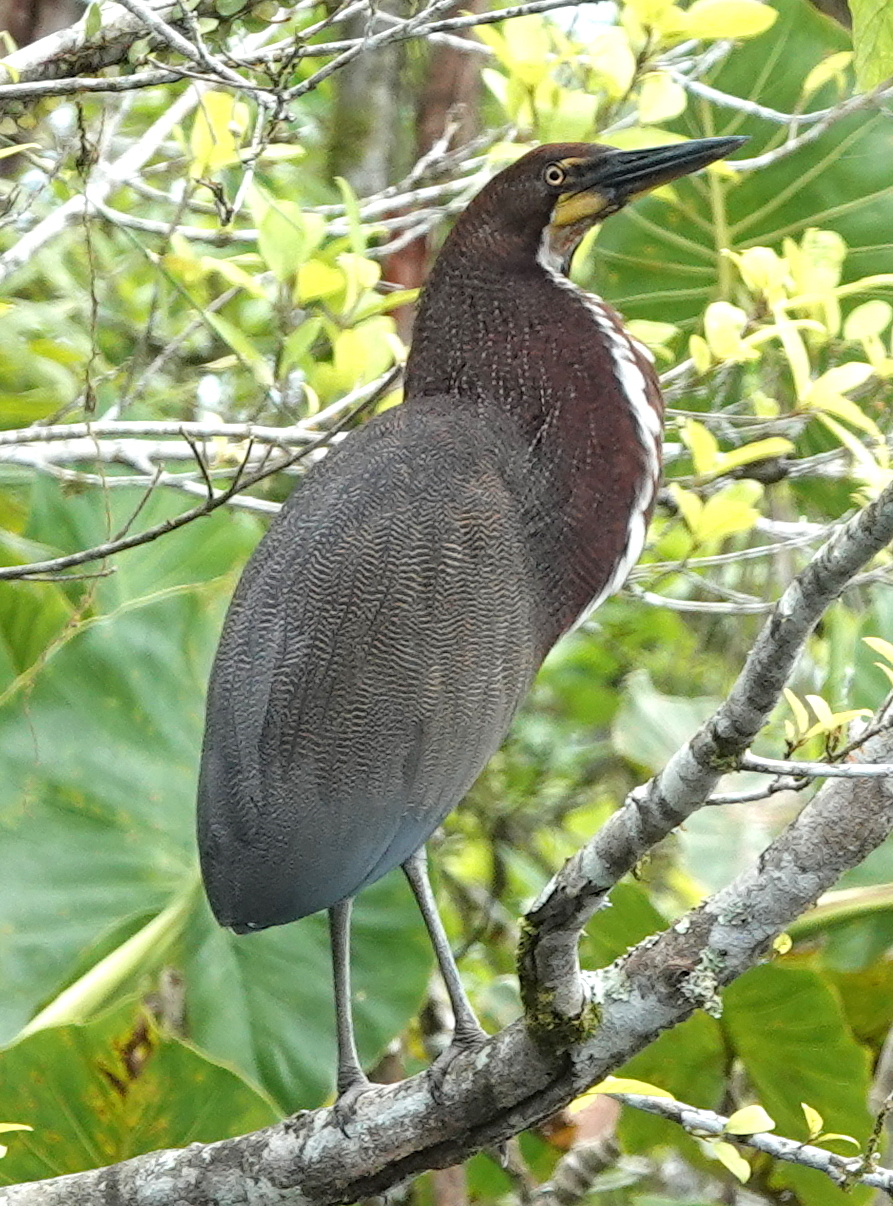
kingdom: Animalia
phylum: Chordata
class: Aves
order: Pelecaniformes
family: Ardeidae
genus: Tigrisoma
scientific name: Tigrisoma lineatum
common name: Rufescent tiger-heron
